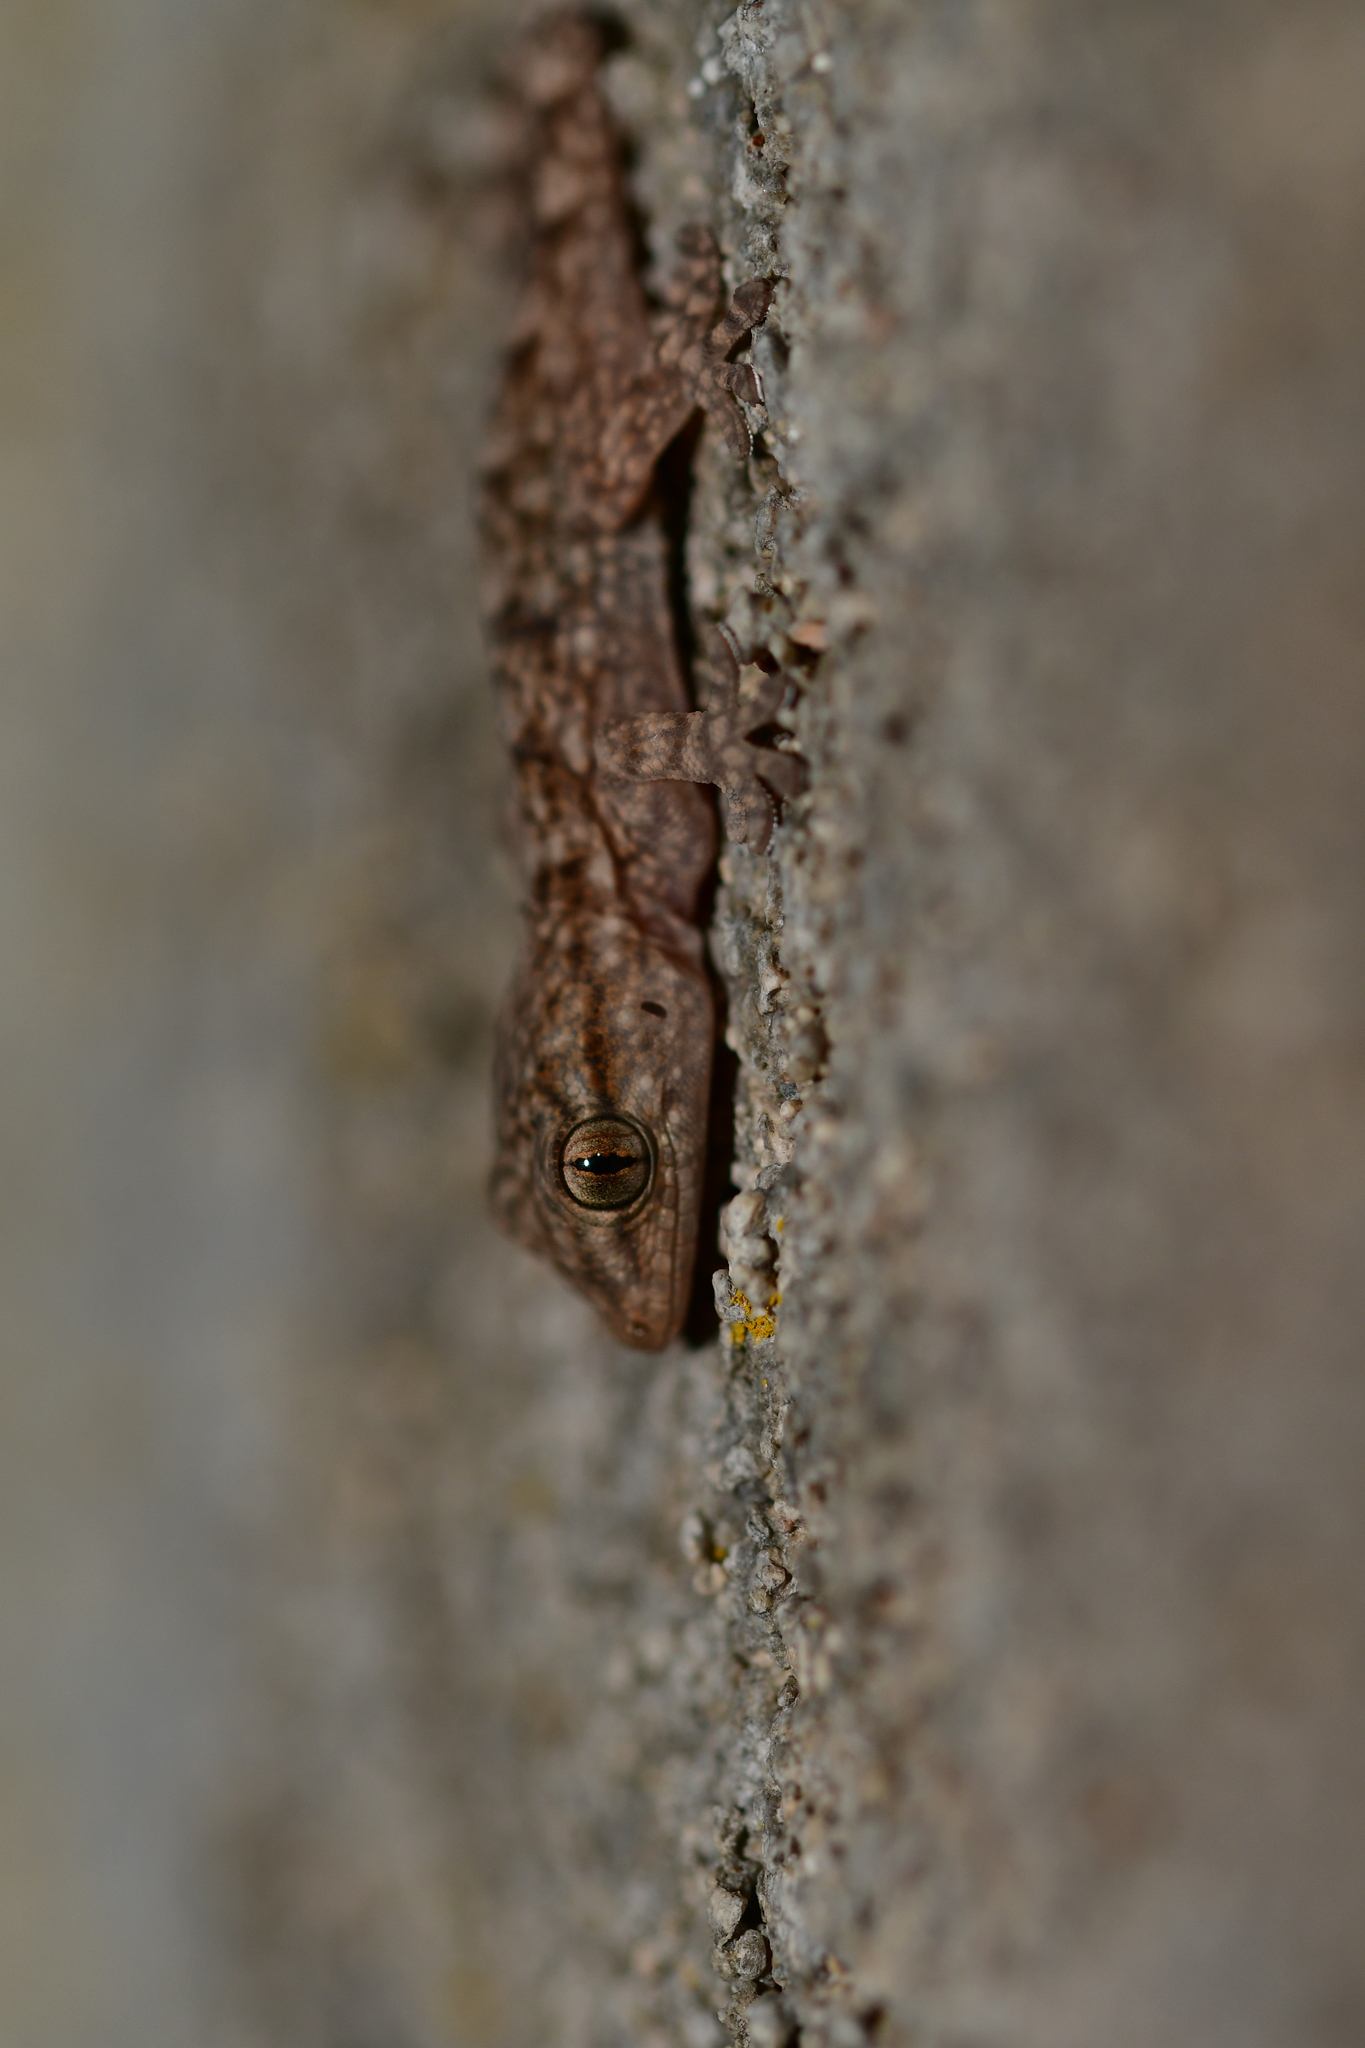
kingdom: Animalia
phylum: Chordata
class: Squamata
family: Phyllodactylidae
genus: Tarentola
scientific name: Tarentola mauritanica
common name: Moorish gecko
